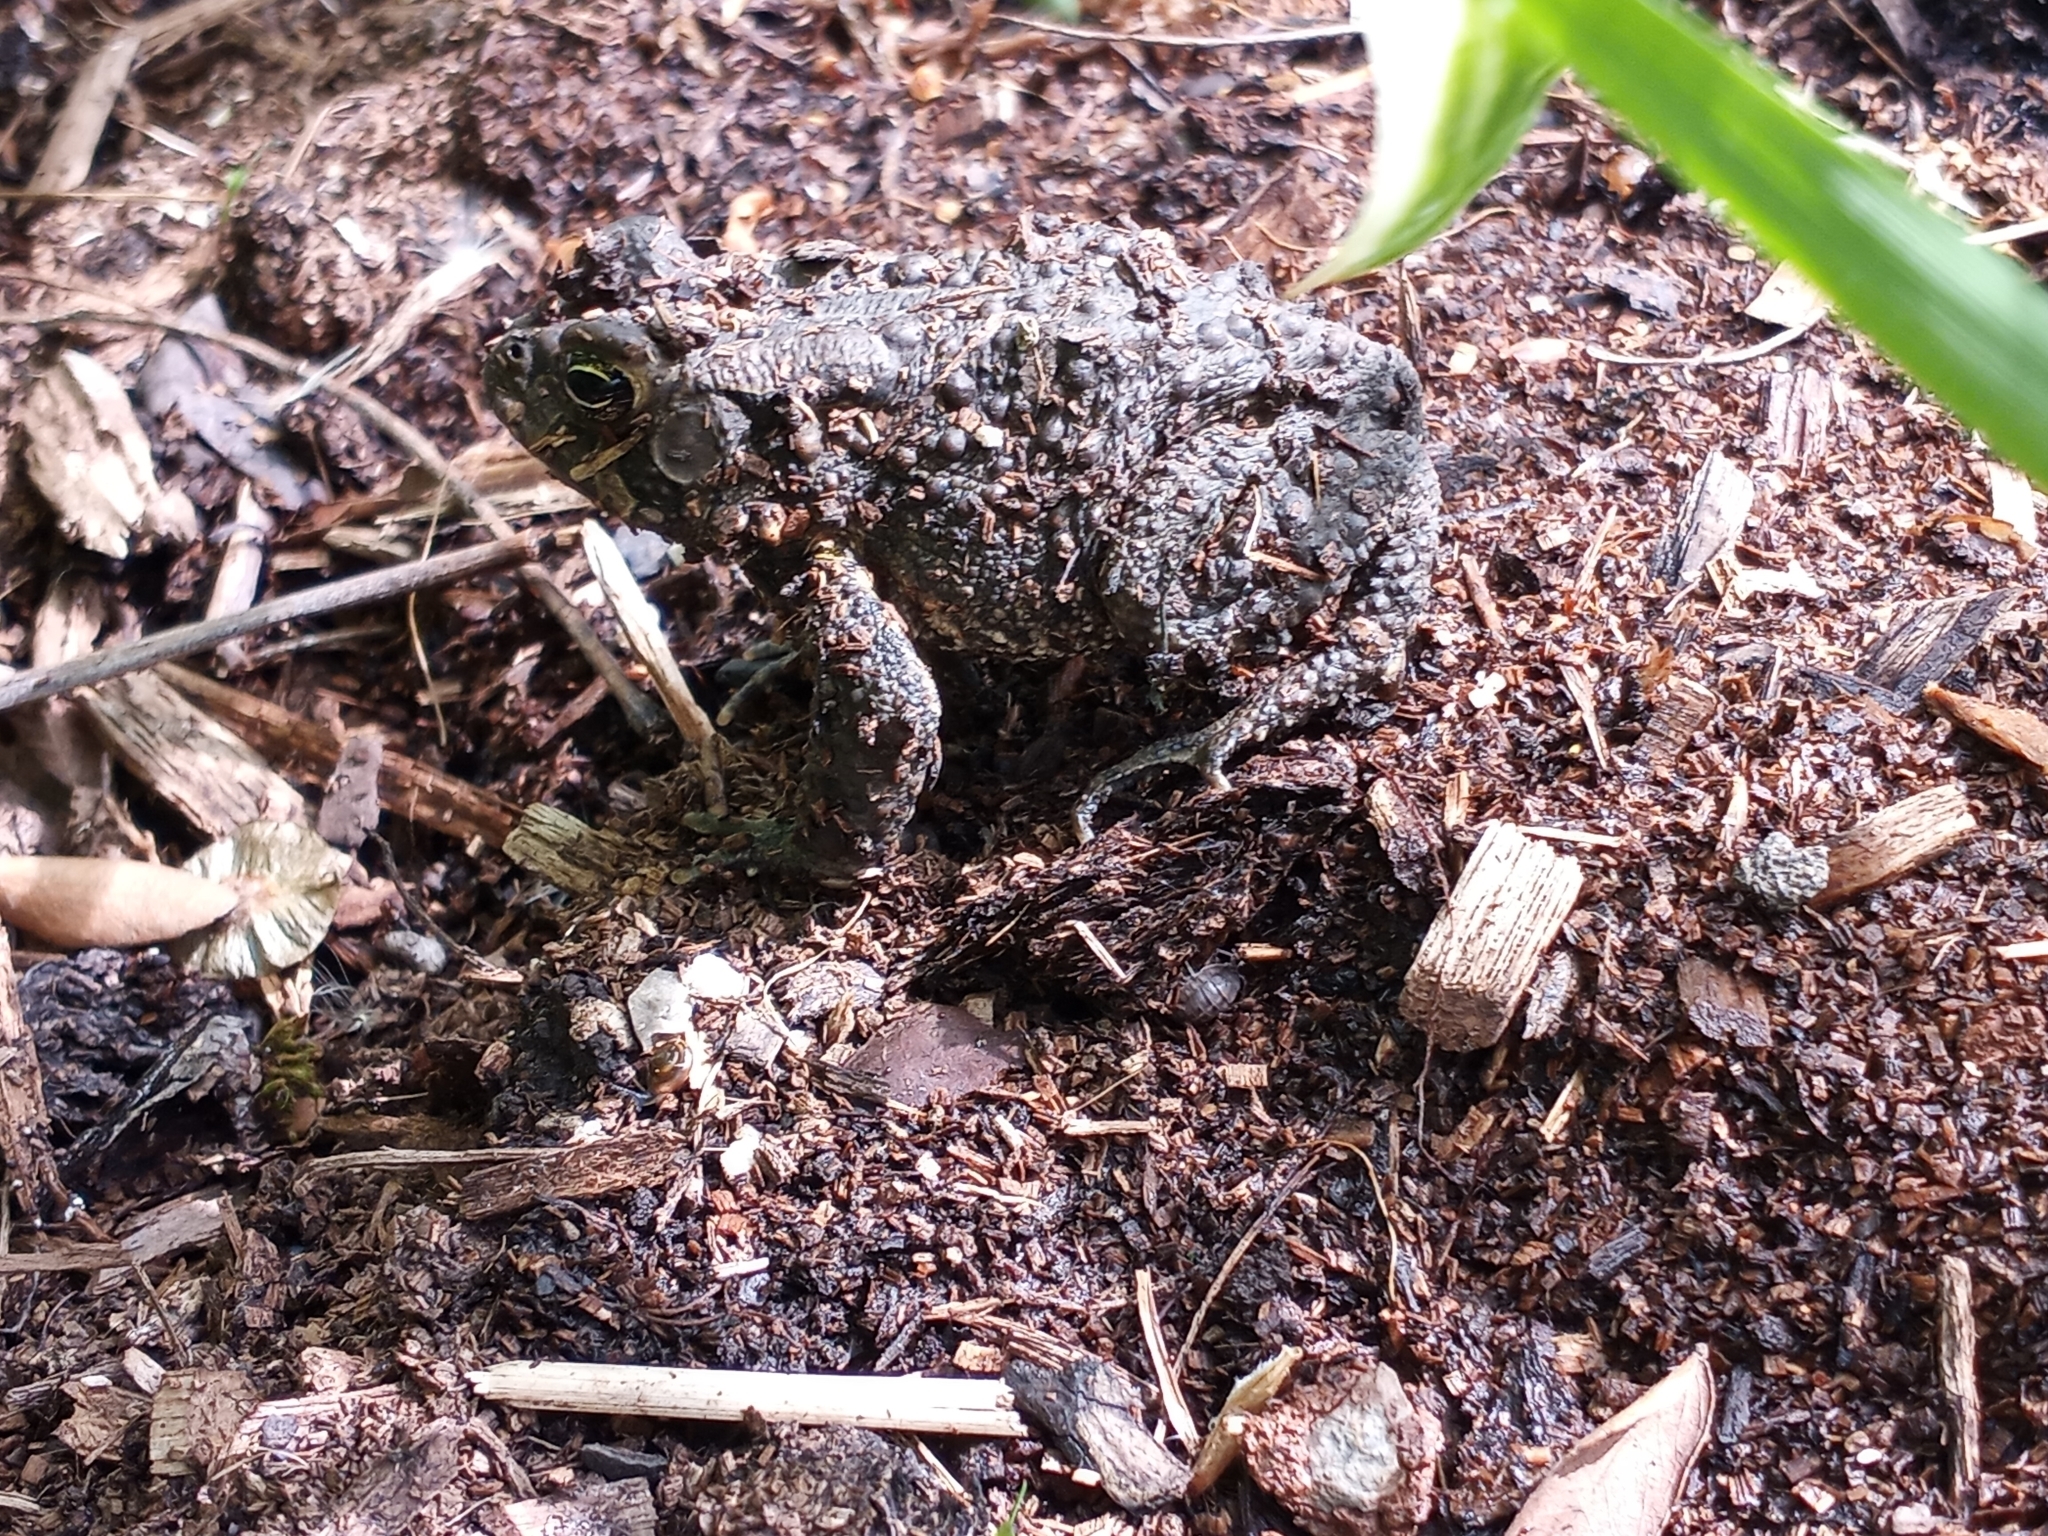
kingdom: Animalia
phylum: Chordata
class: Amphibia
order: Anura
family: Bufonidae
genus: Anaxyrus
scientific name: Anaxyrus americanus
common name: American toad
